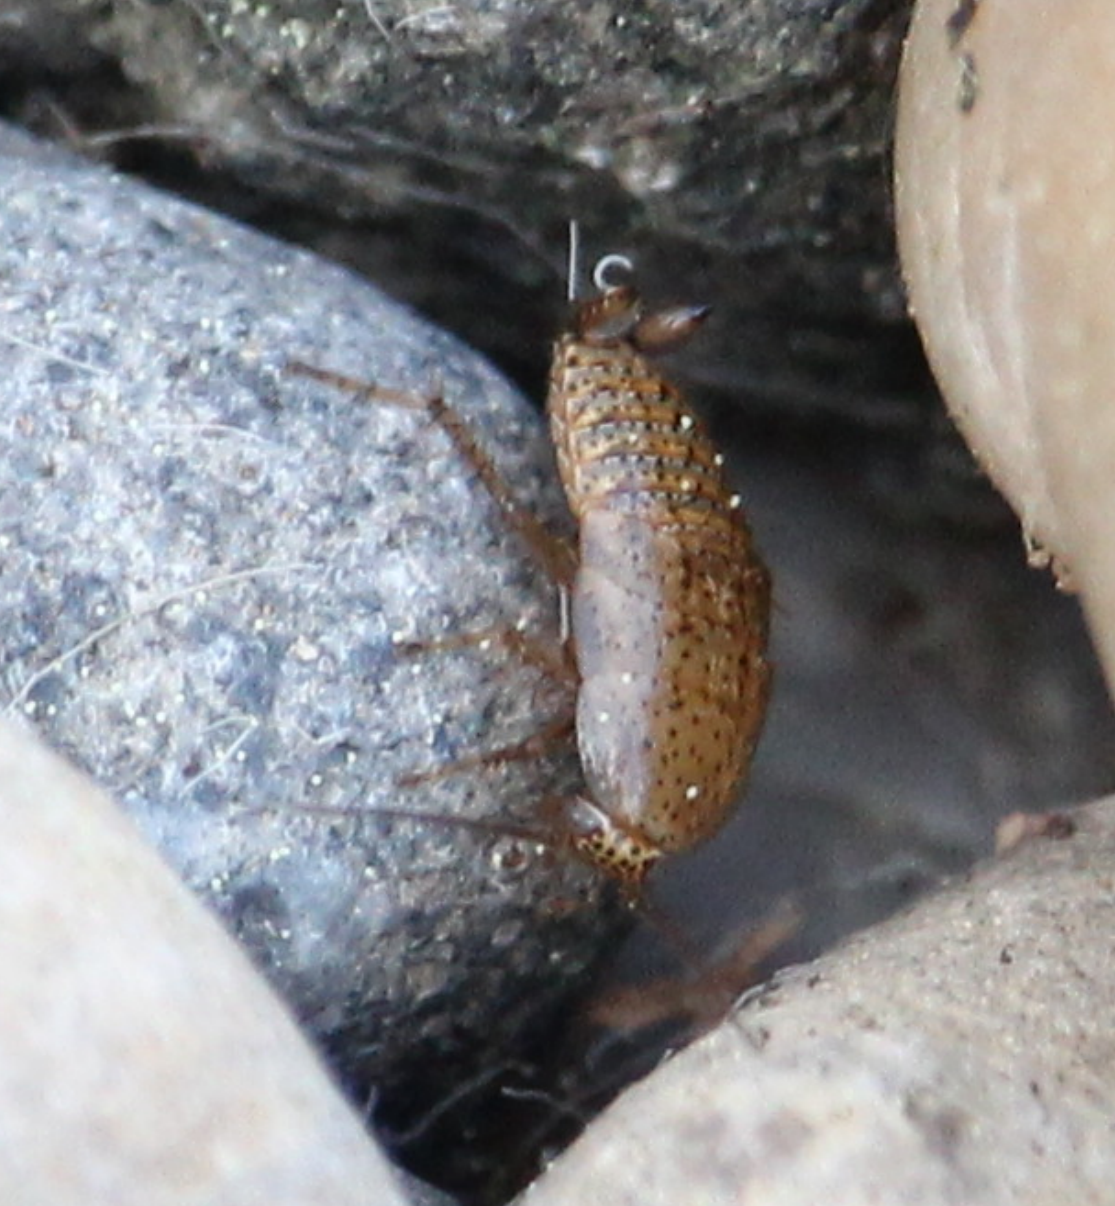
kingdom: Animalia
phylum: Arthropoda
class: Insecta
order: Blattodea
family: Ectobiidae
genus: Ectobius
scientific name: Ectobius pallidus
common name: Tawny cockroach
